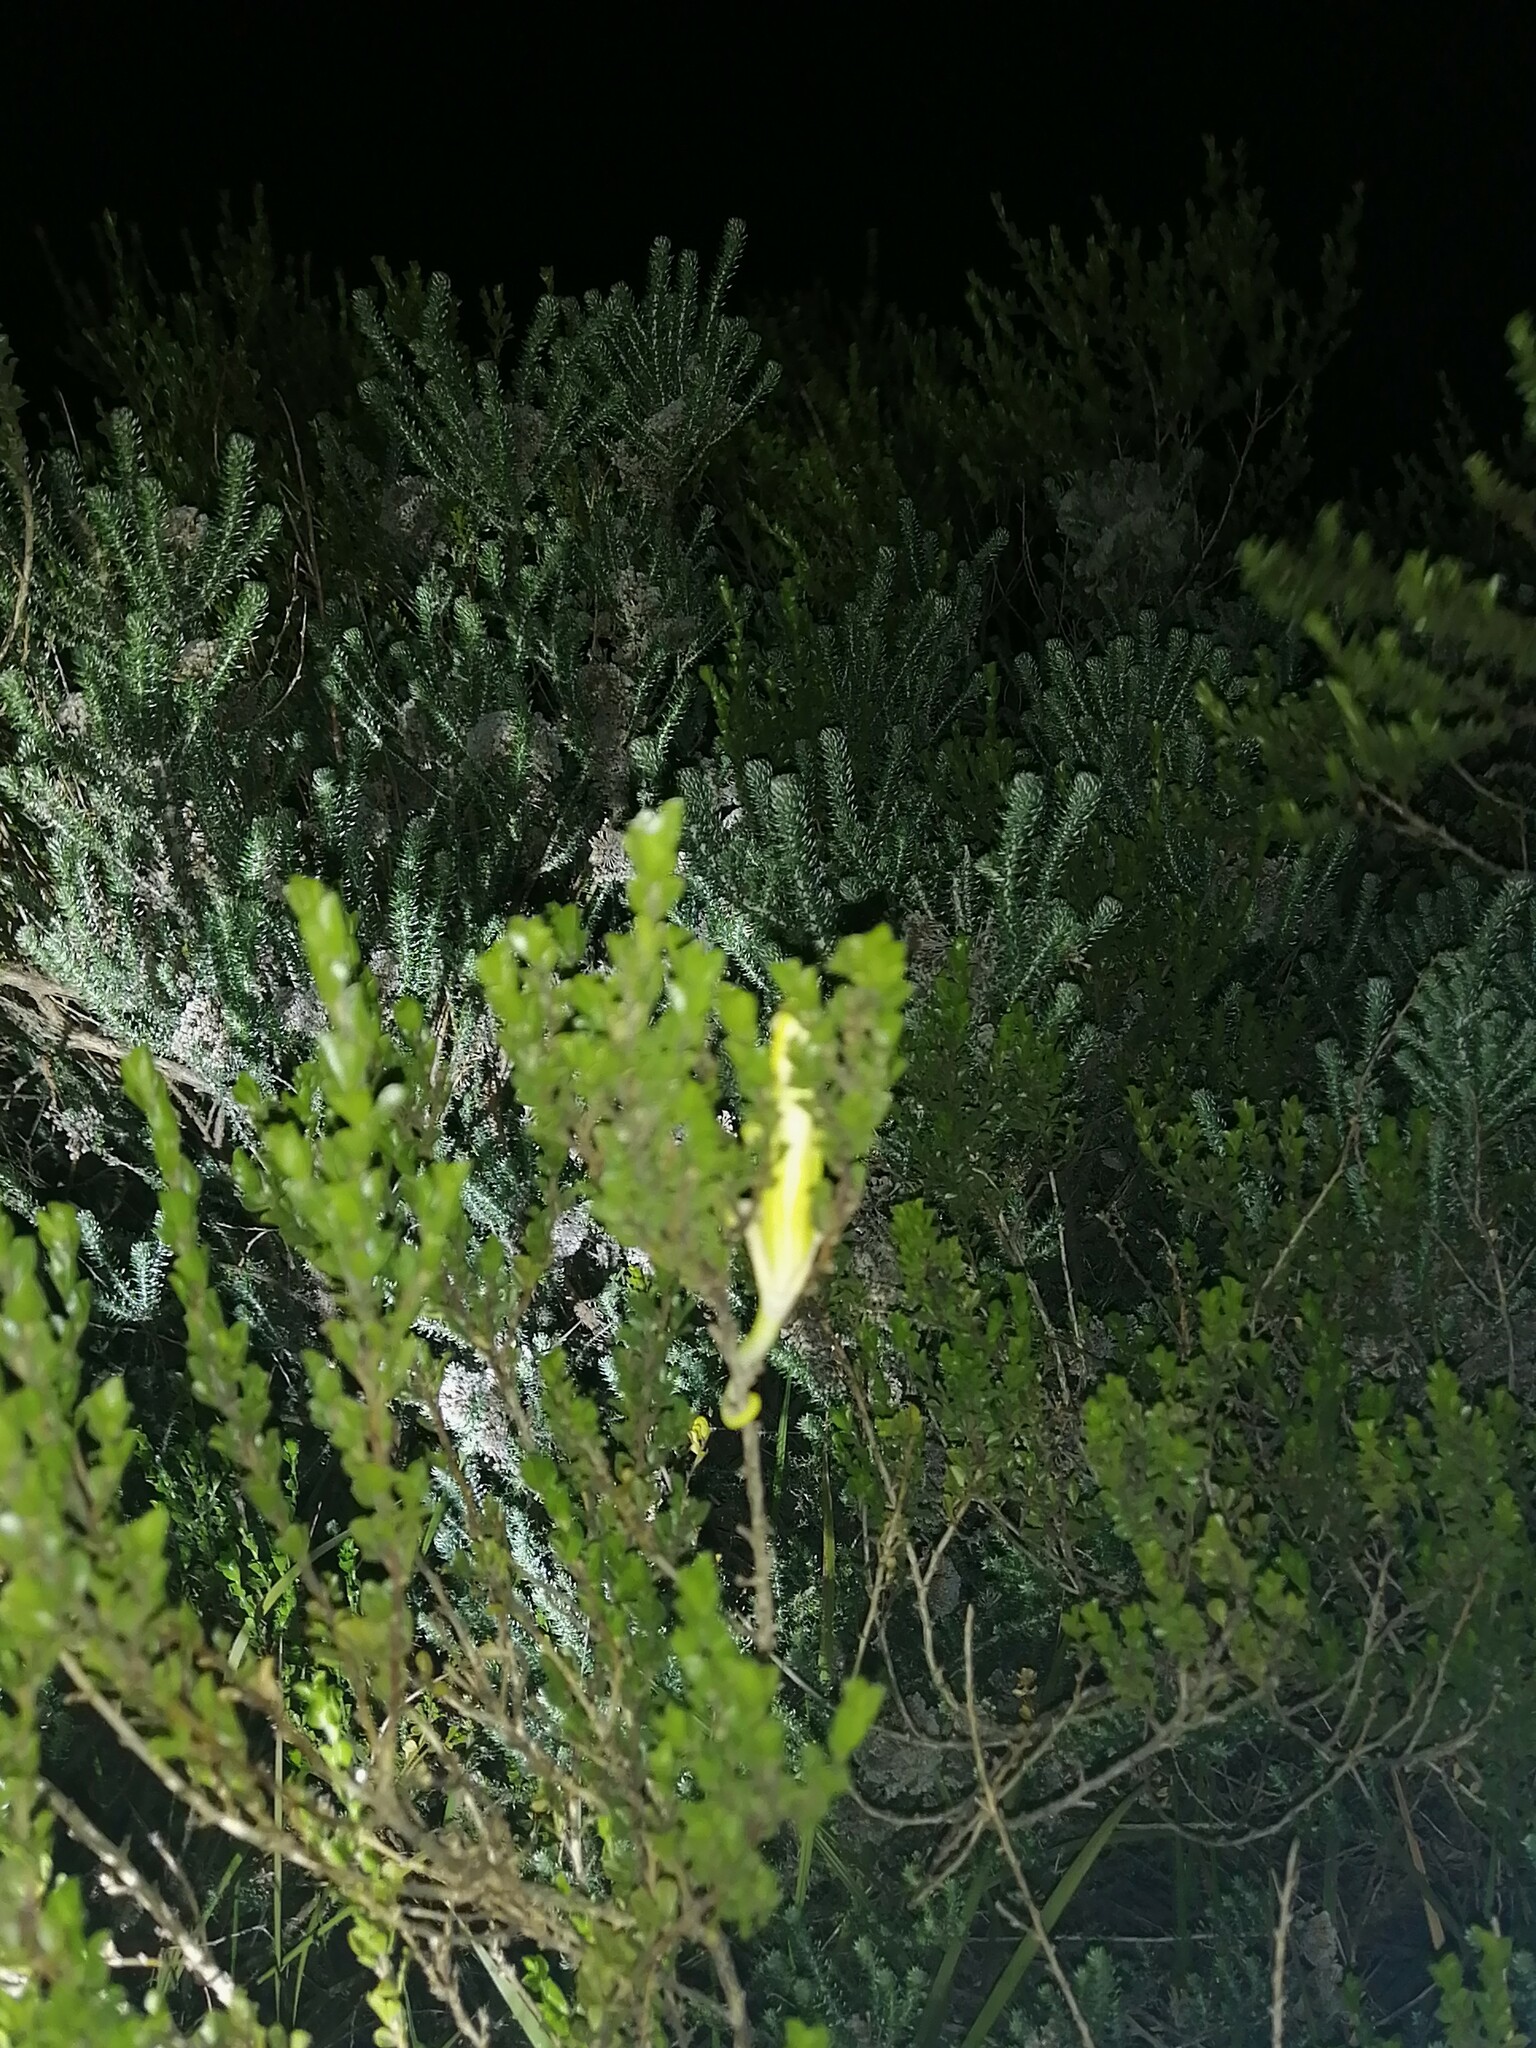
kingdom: Animalia
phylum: Chordata
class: Squamata
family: Chamaeleonidae
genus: Bradypodion
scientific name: Bradypodion pumilum
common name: Cape dwarf chameleon
